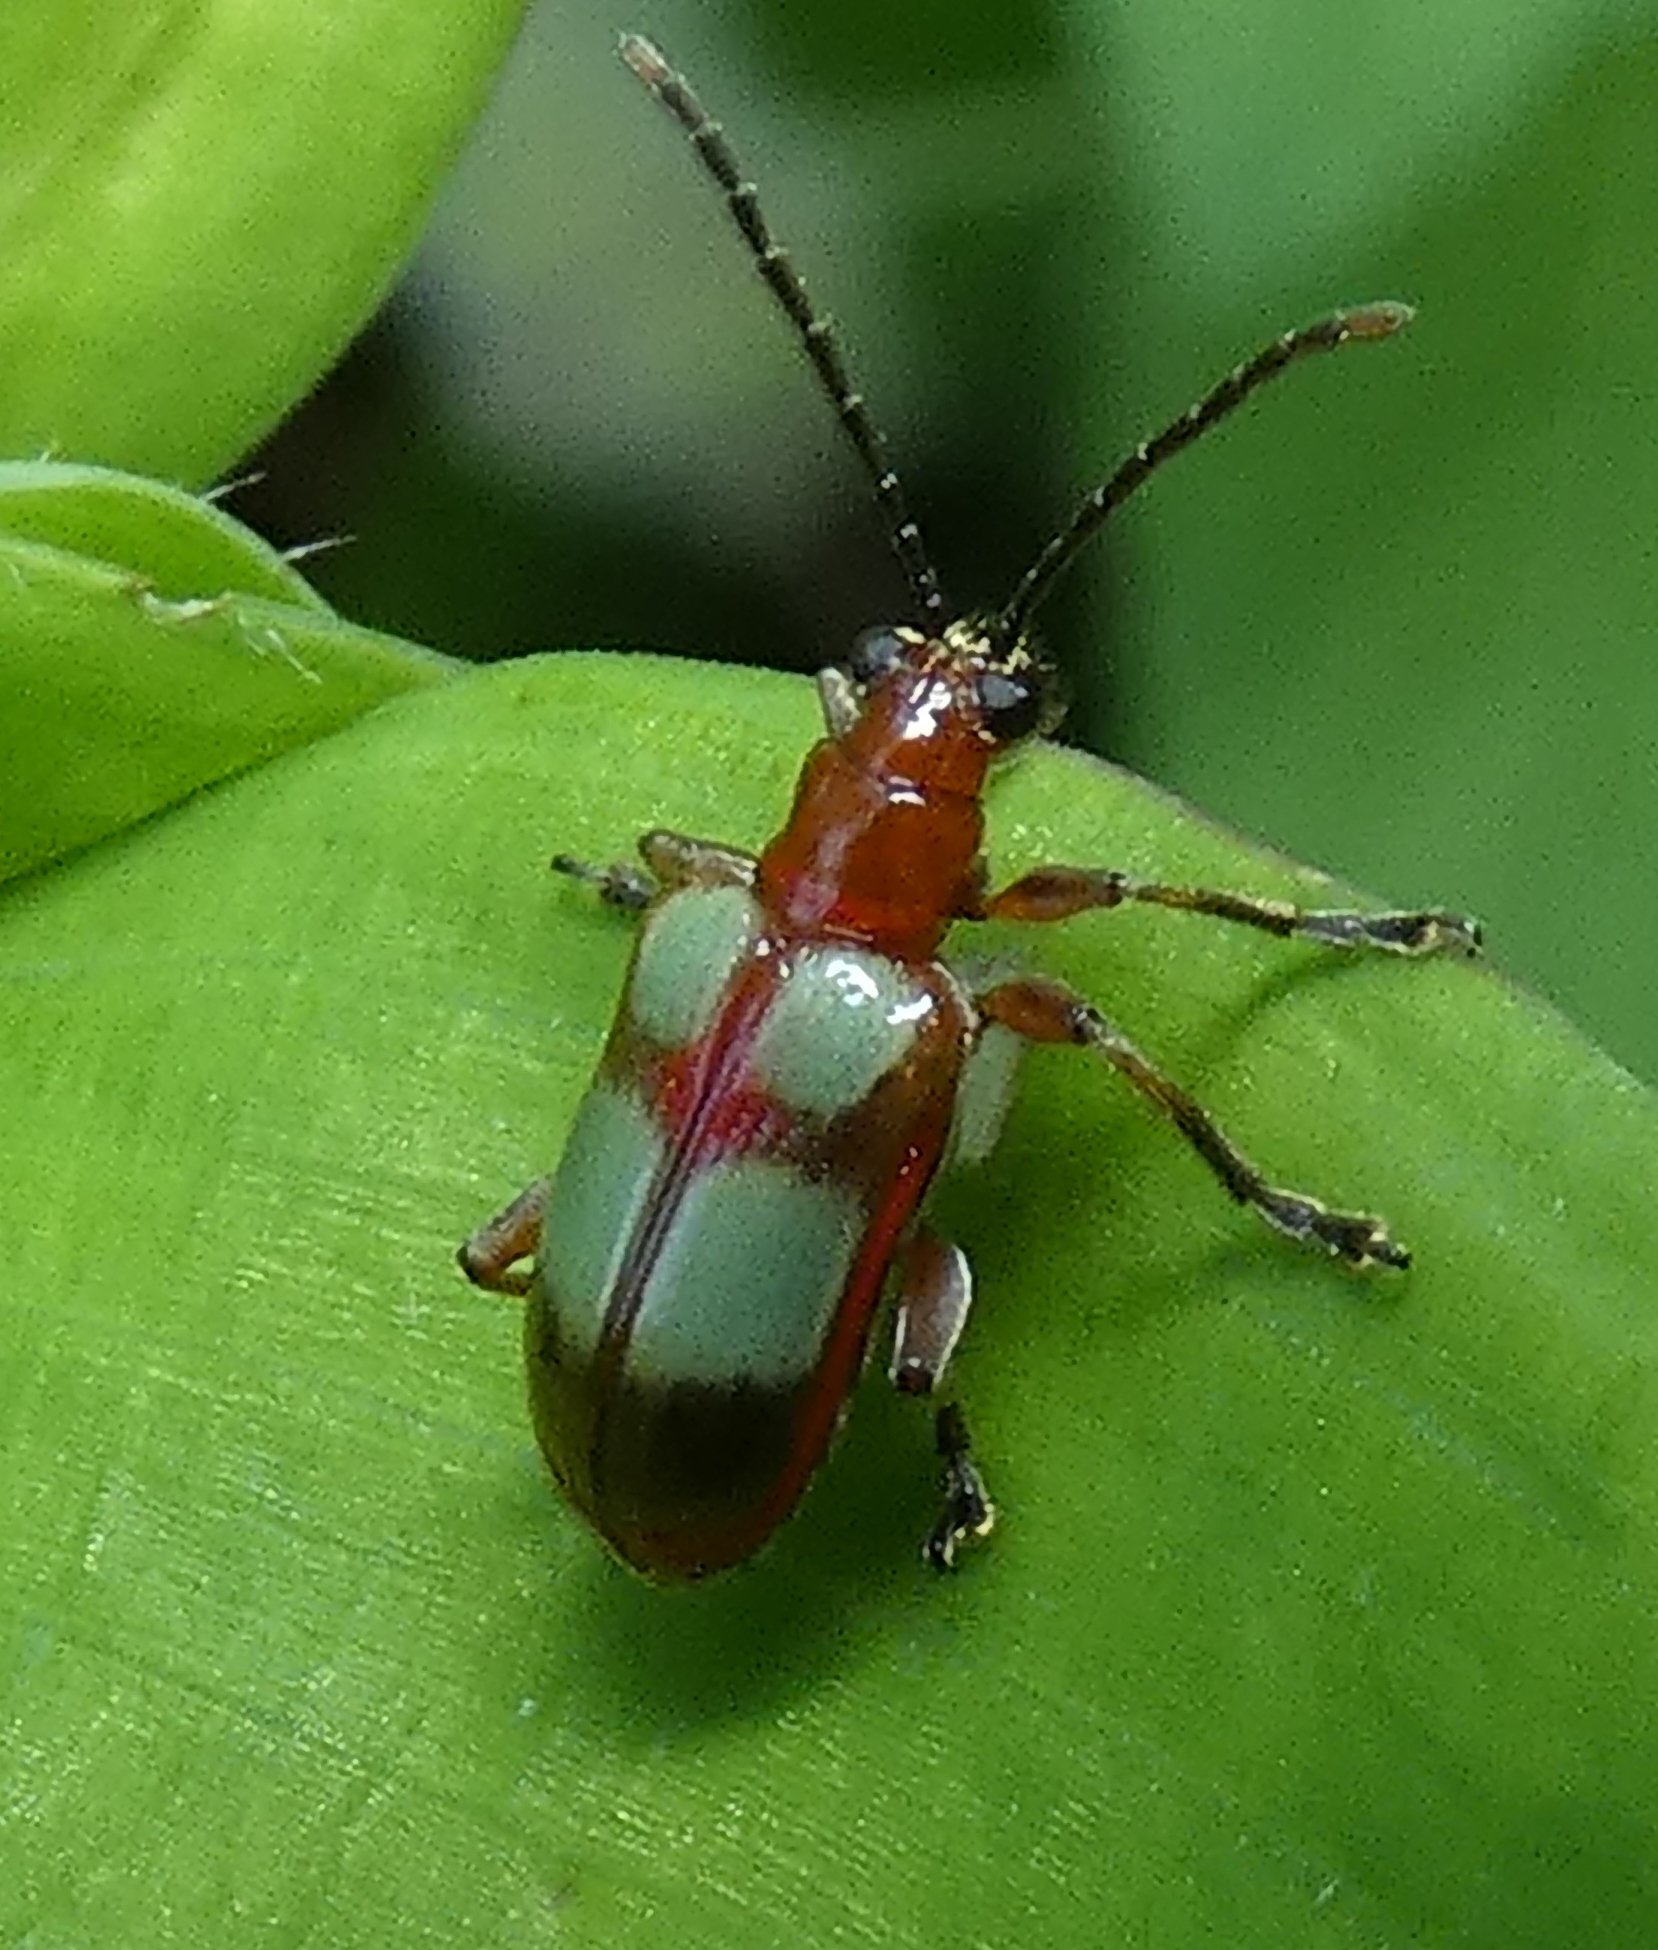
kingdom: Animalia
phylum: Arthropoda
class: Insecta
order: Coleoptera
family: Chrysomelidae
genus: Neolema
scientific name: Neolema
